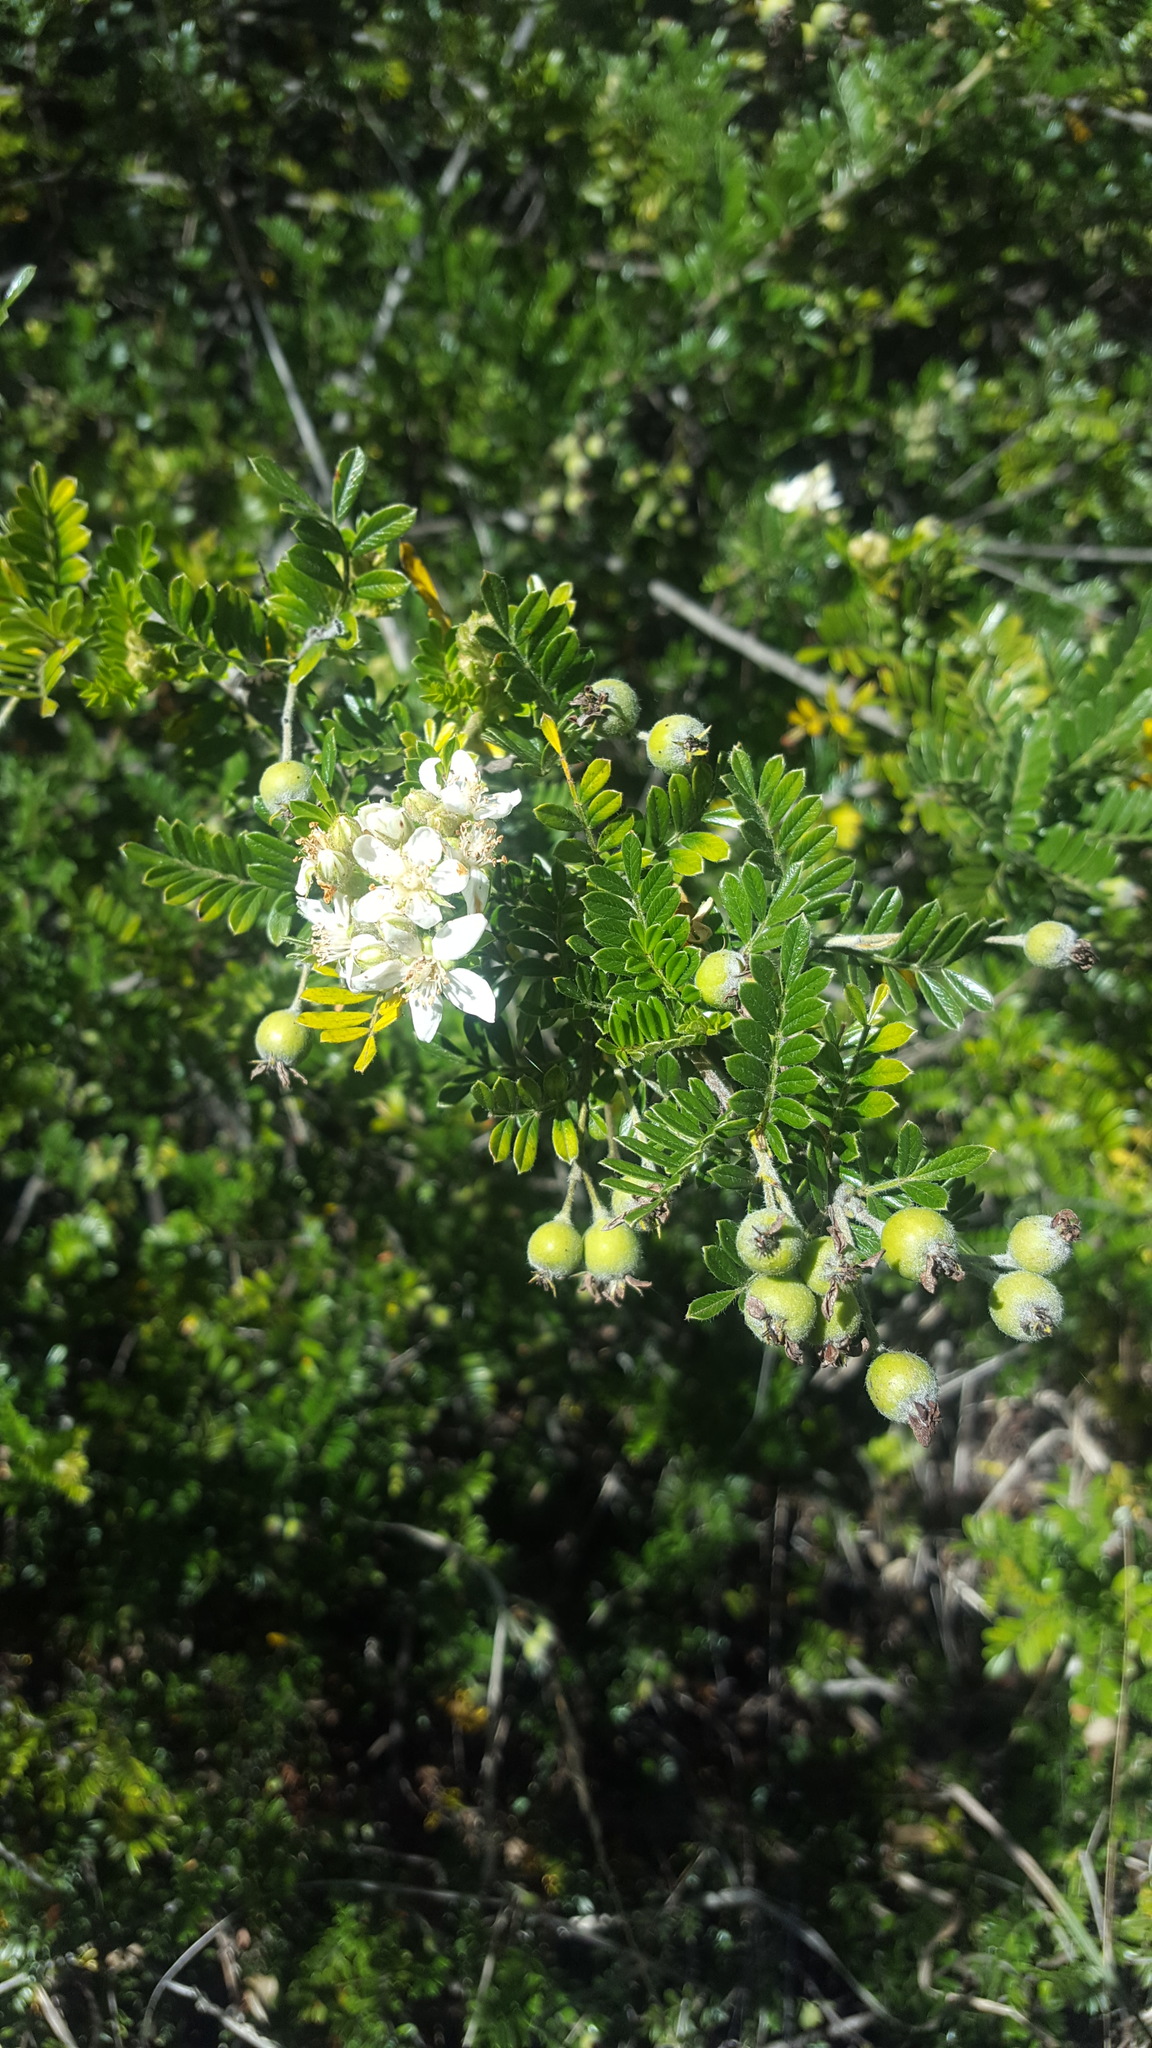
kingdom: Plantae
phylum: Tracheophyta
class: Magnoliopsida
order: Rosales
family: Rosaceae
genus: Osteomeles
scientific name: Osteomeles anthyllidifolia
